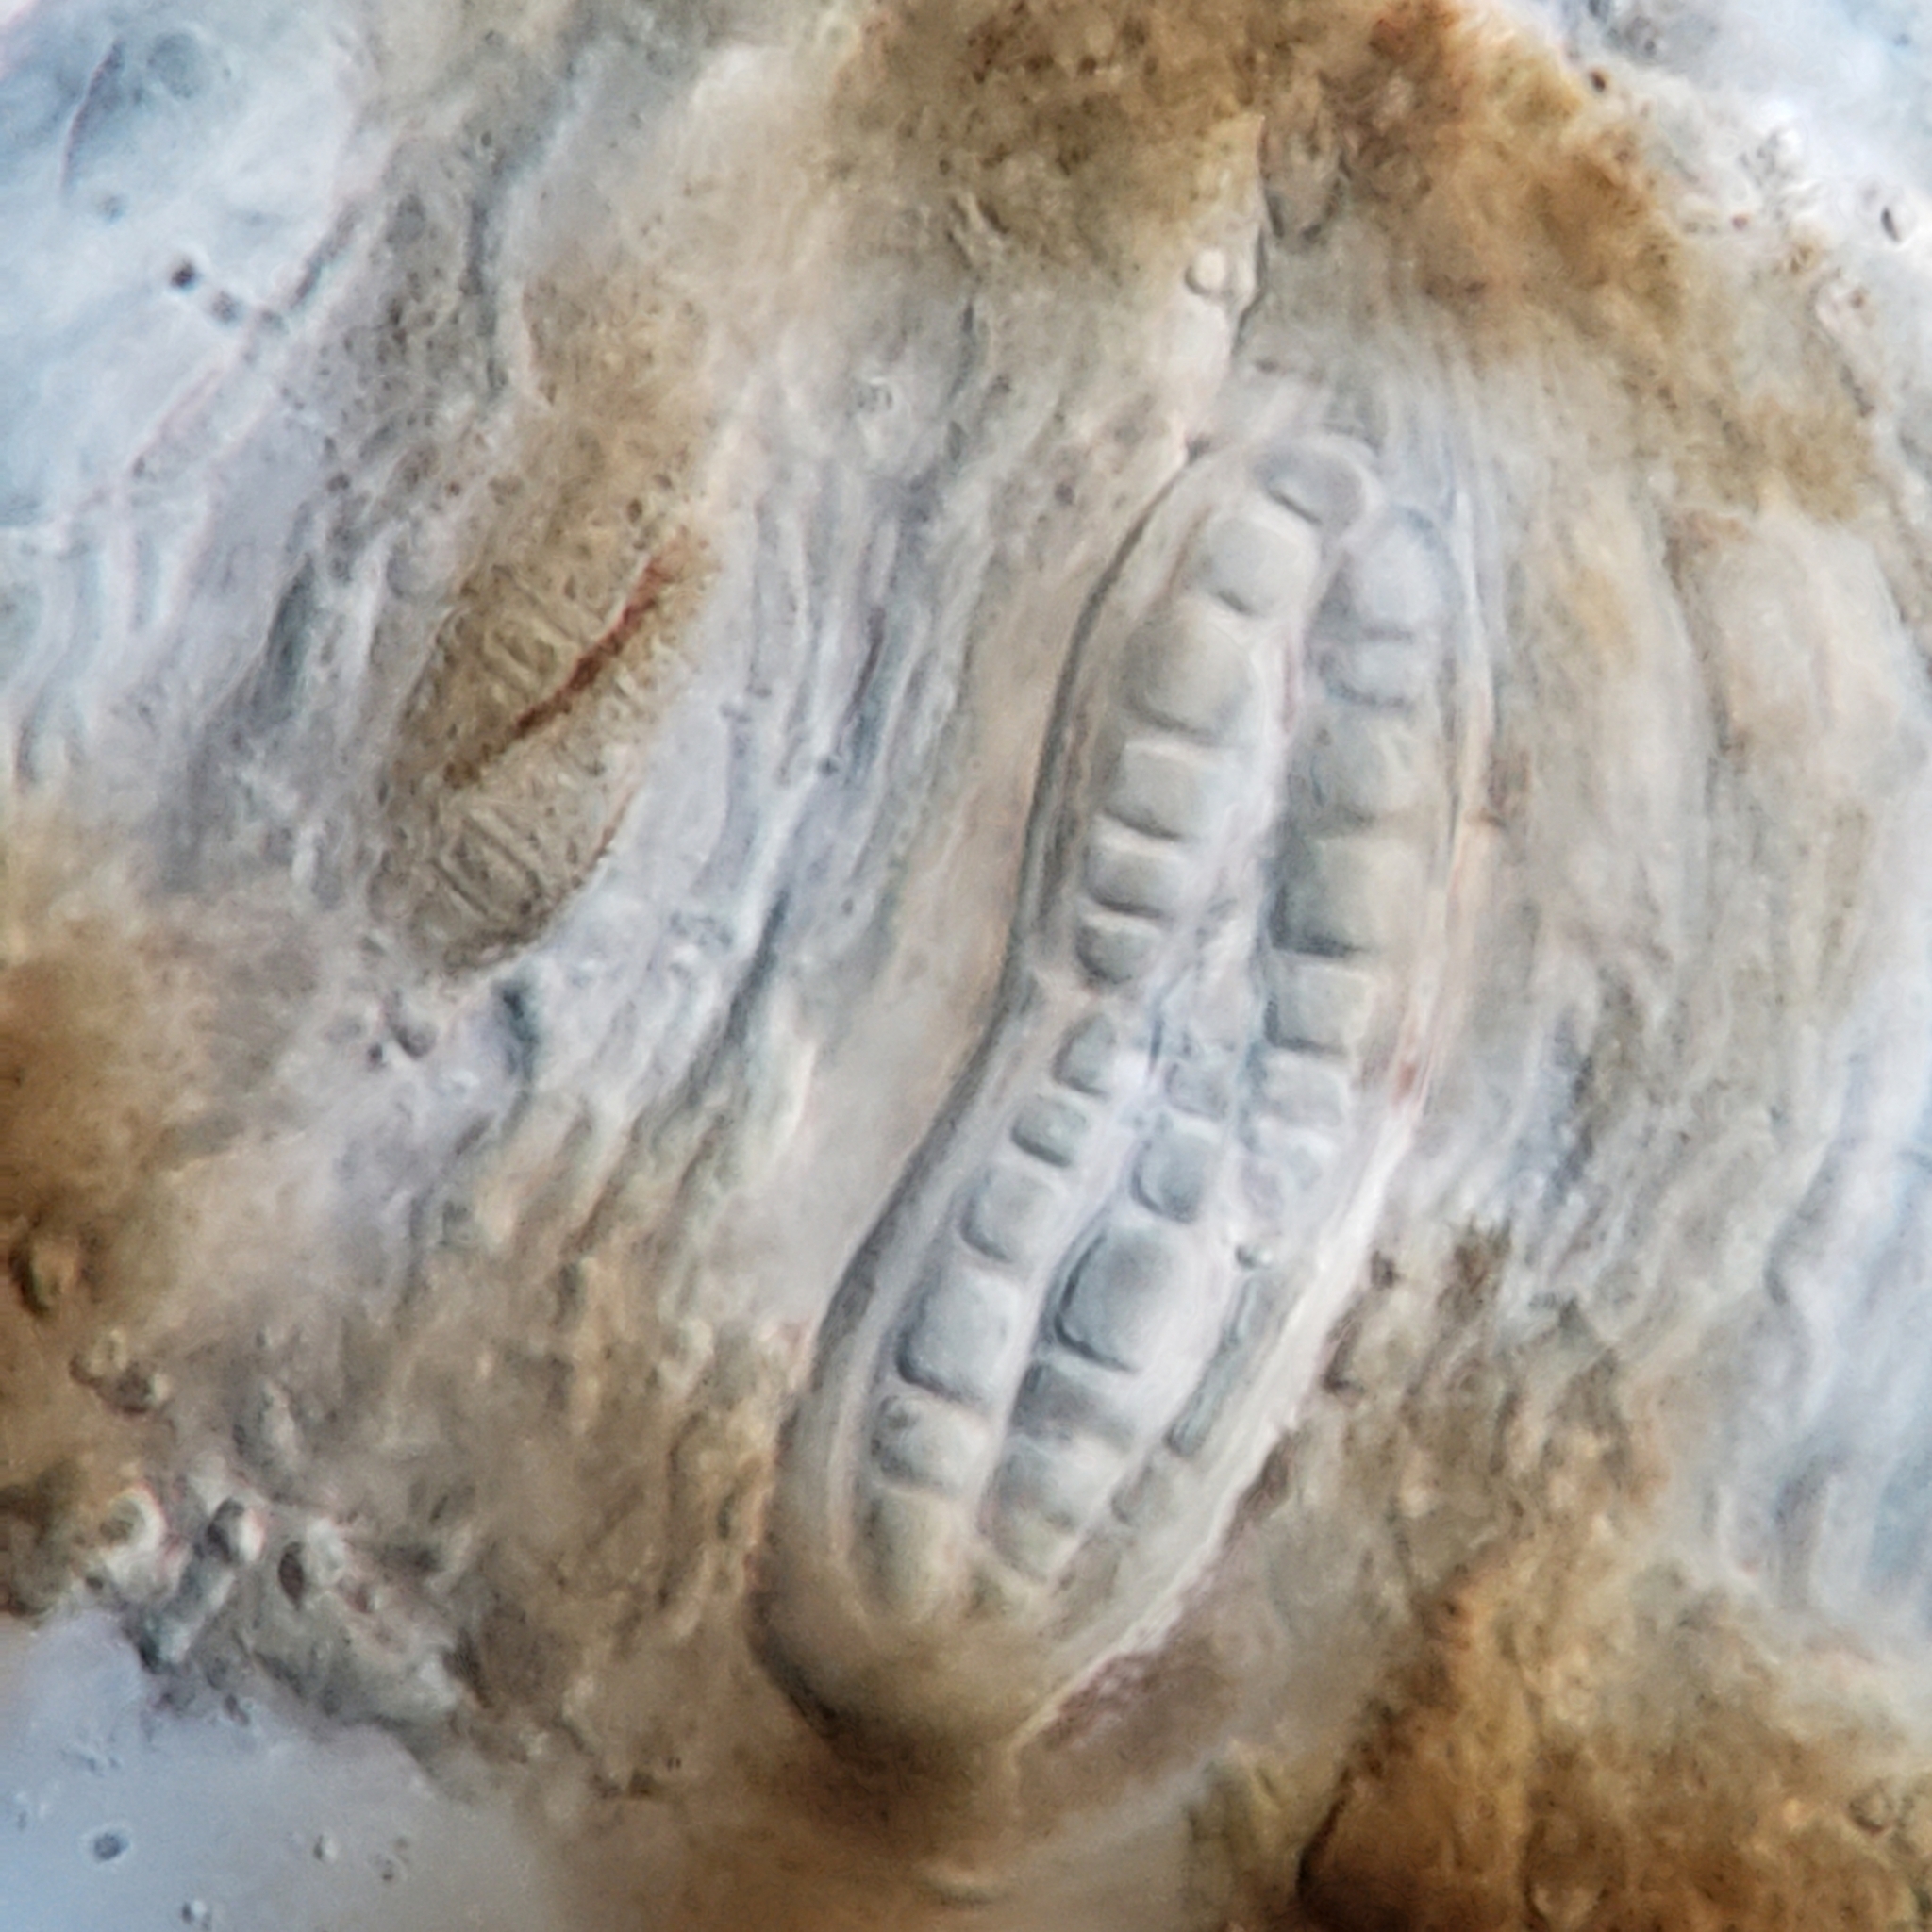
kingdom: Fungi
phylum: Ascomycota
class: Arthoniomycetes
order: Arthoniales
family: Lecanographaceae
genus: Alyxoria
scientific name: Alyxoria varia
